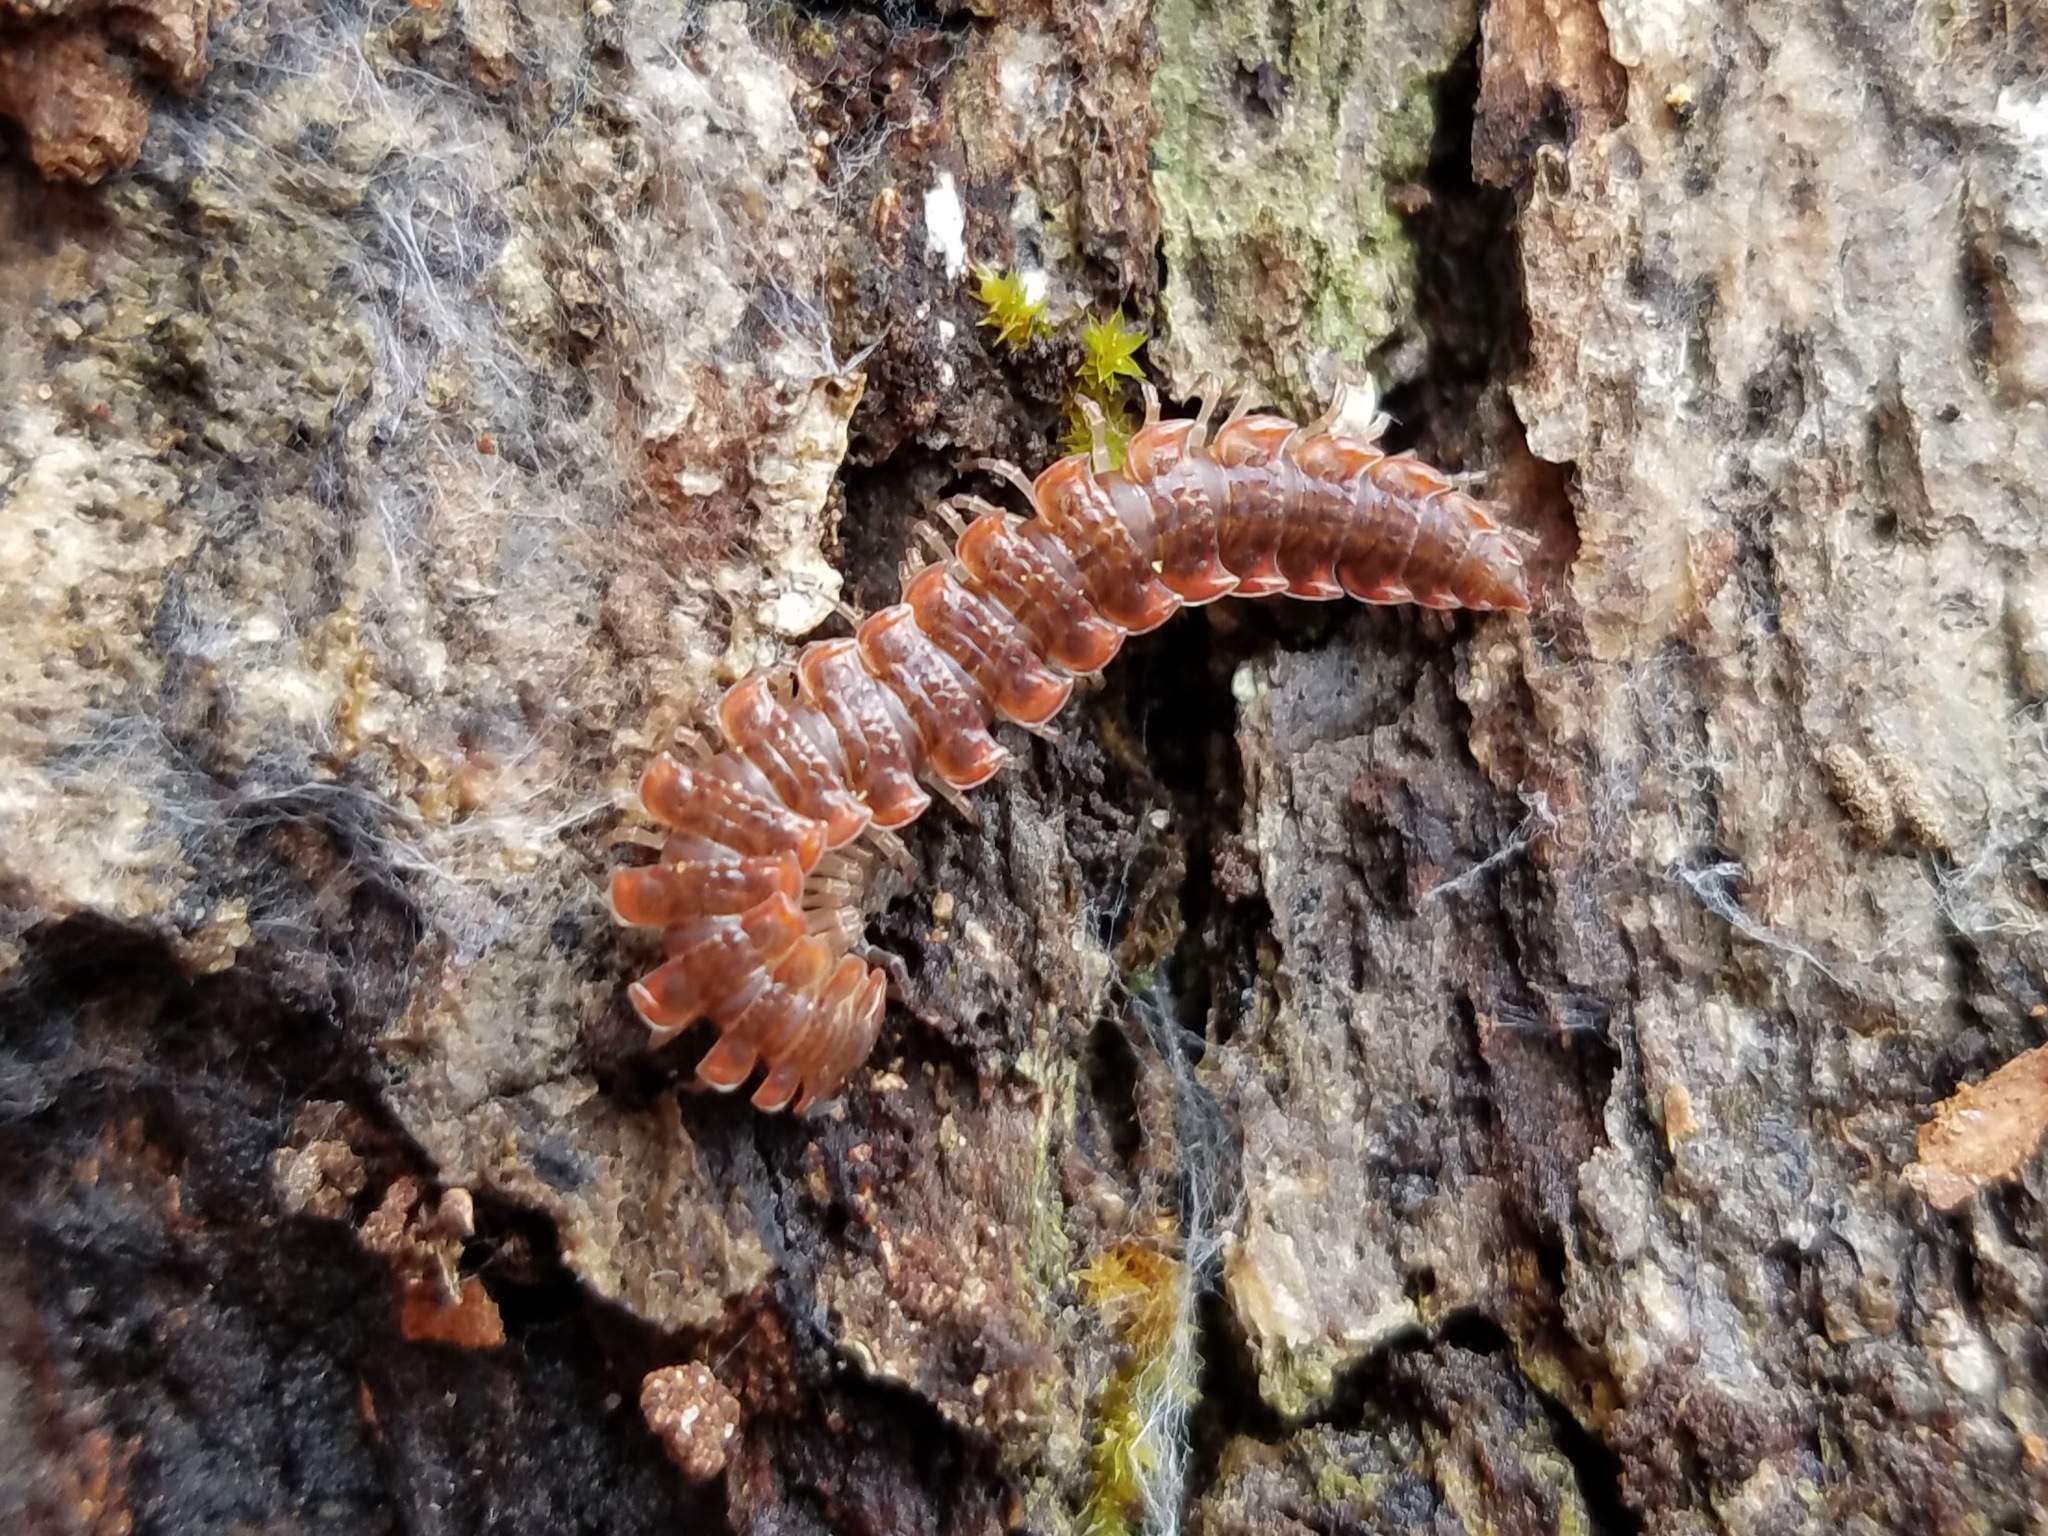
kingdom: Animalia
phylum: Arthropoda
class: Diplopoda
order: Polydesmida
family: Polydesmidae
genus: Pseudopolydesmus
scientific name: Pseudopolydesmus erasus
